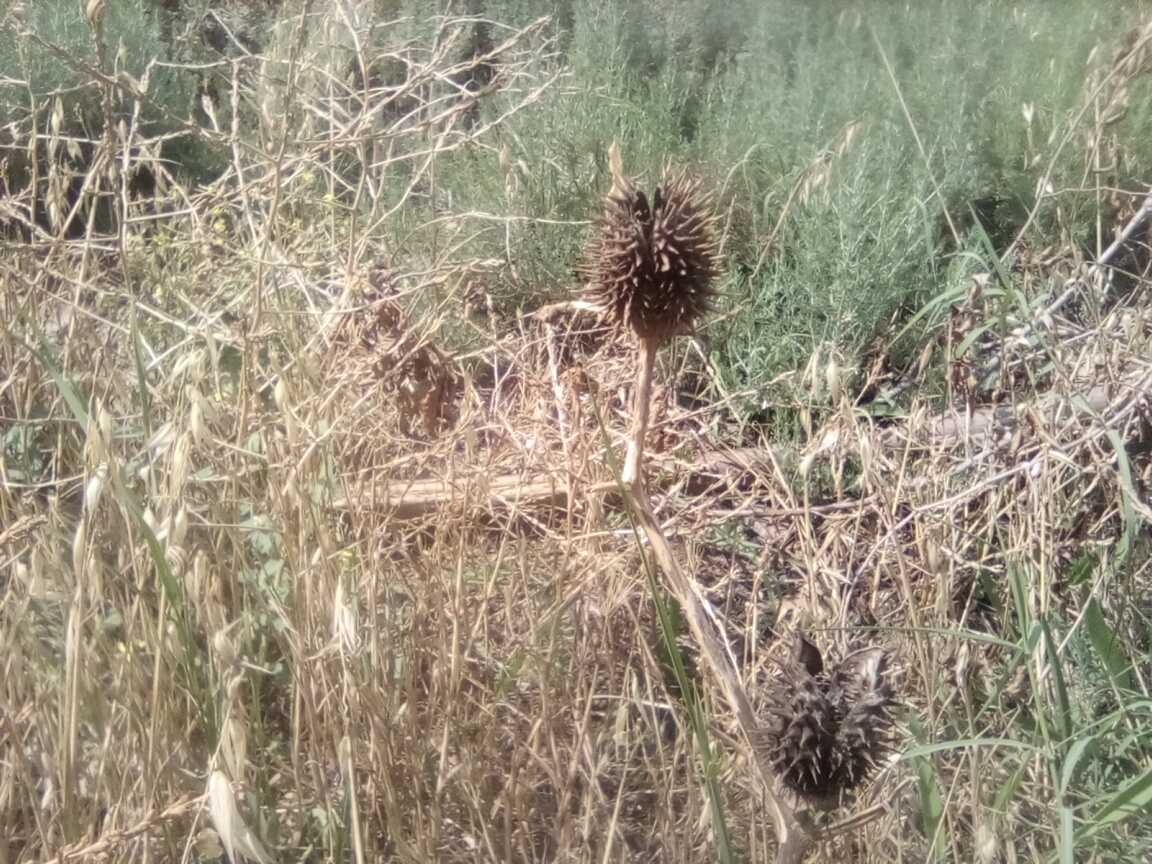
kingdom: Plantae
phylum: Tracheophyta
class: Magnoliopsida
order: Solanales
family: Solanaceae
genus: Datura
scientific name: Datura stramonium
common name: Thorn-apple
